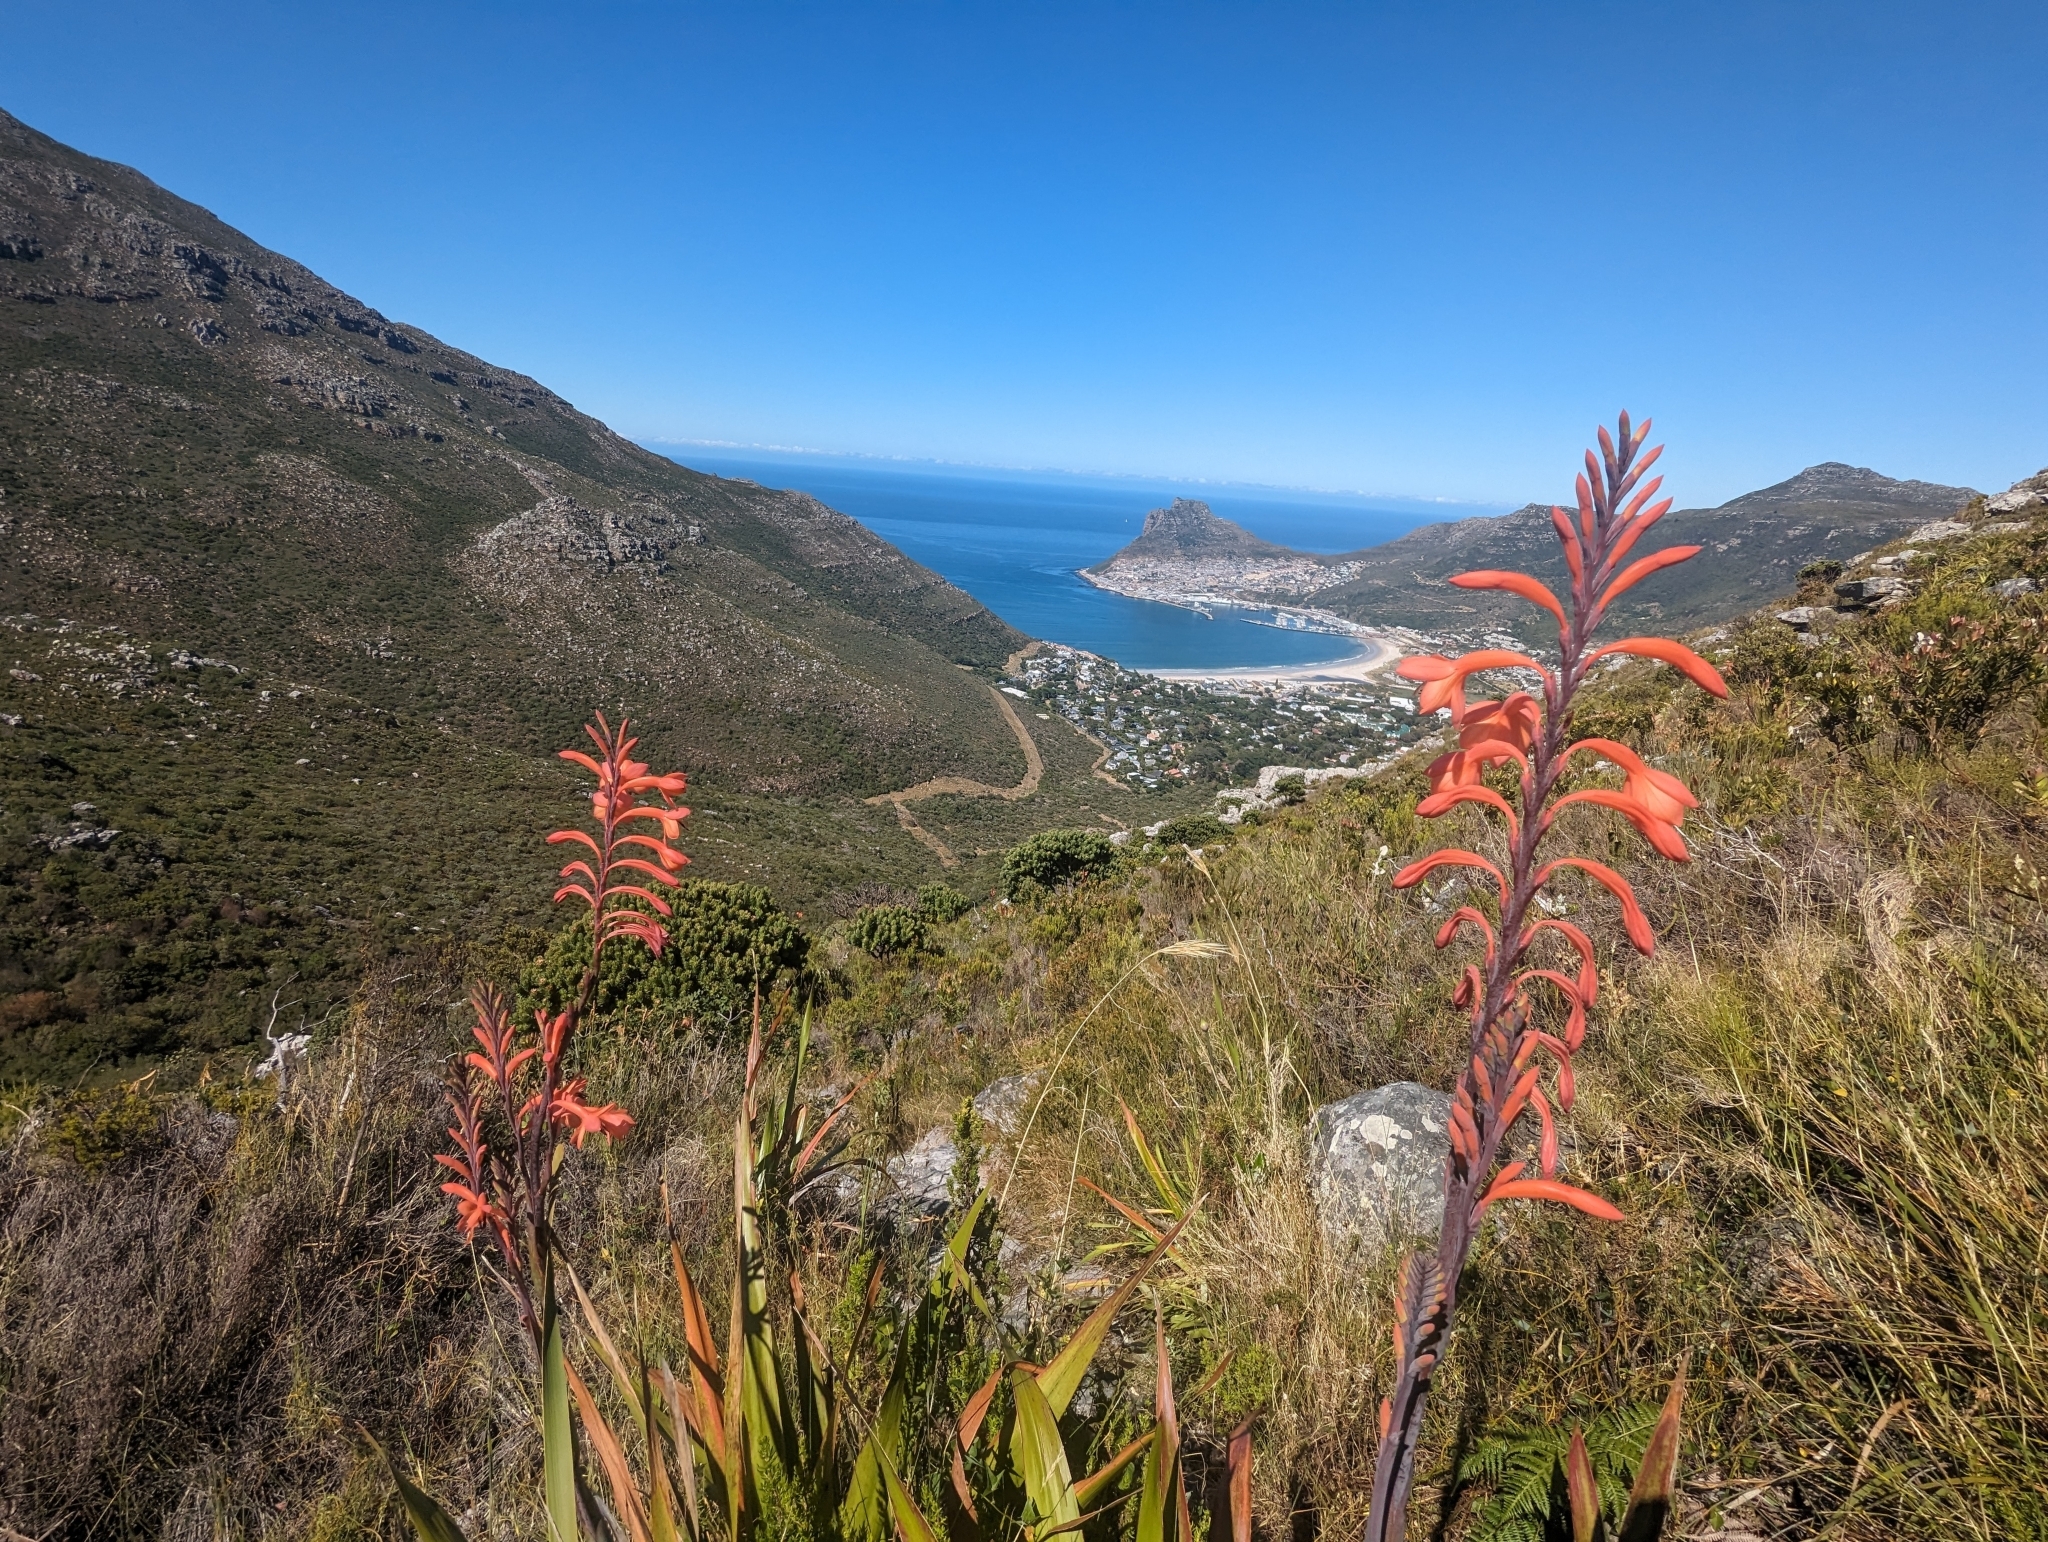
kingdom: Plantae
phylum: Tracheophyta
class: Liliopsida
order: Asparagales
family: Iridaceae
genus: Watsonia
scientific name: Watsonia tabularis
